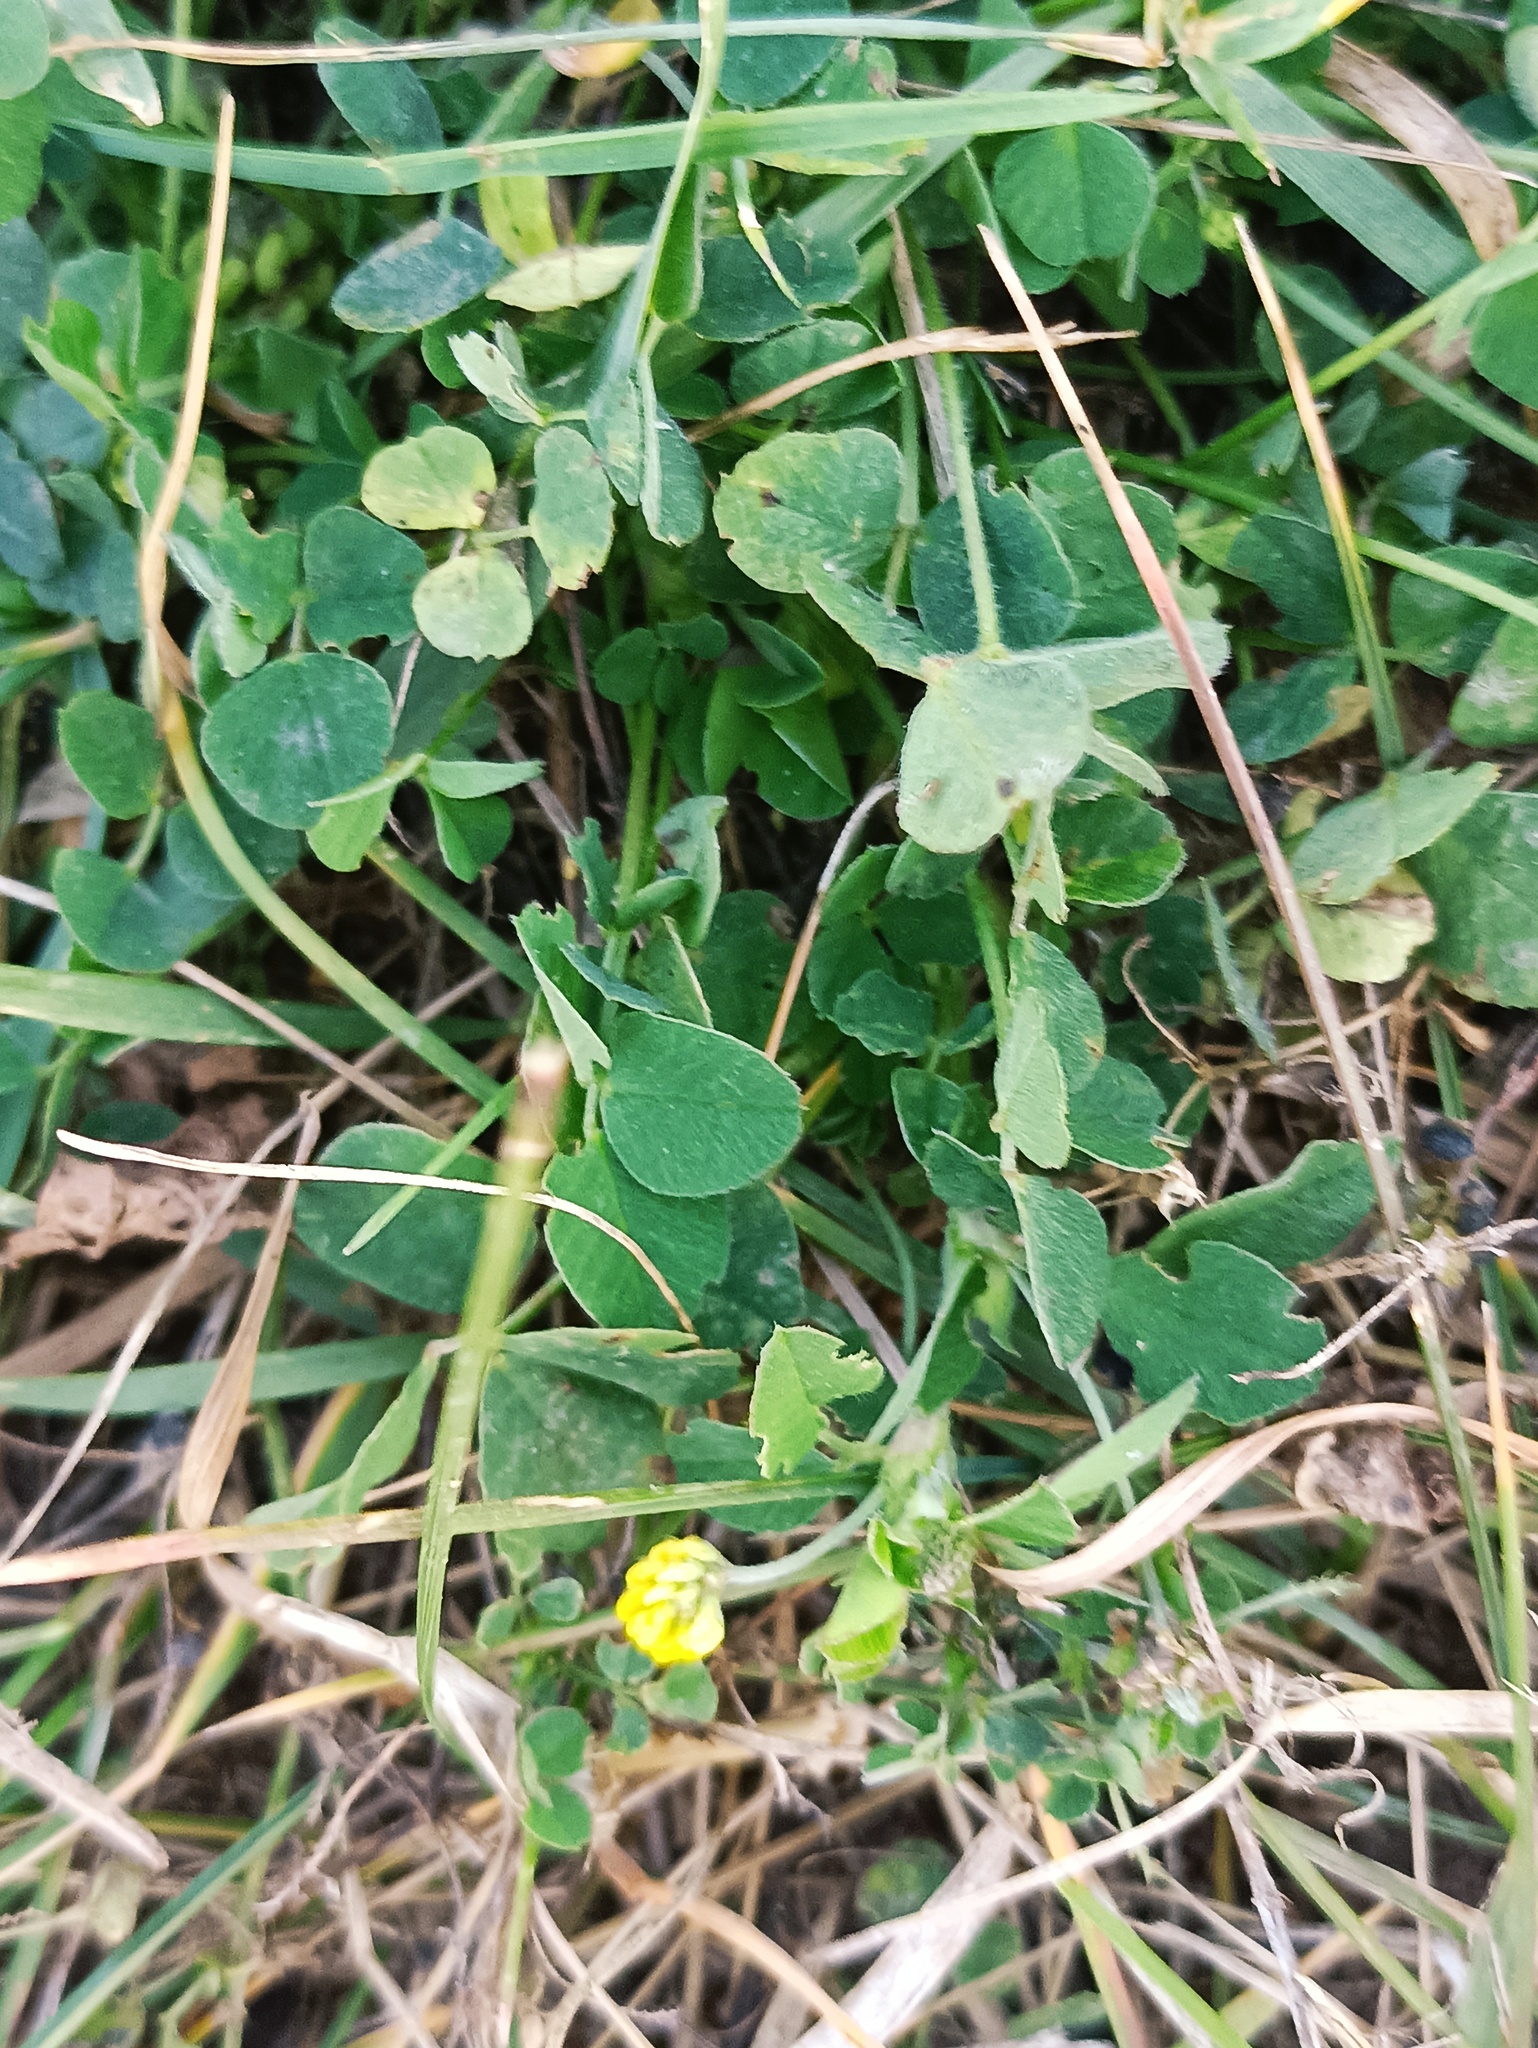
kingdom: Plantae
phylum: Tracheophyta
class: Magnoliopsida
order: Fabales
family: Fabaceae
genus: Medicago
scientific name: Medicago lupulina
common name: Black medick
